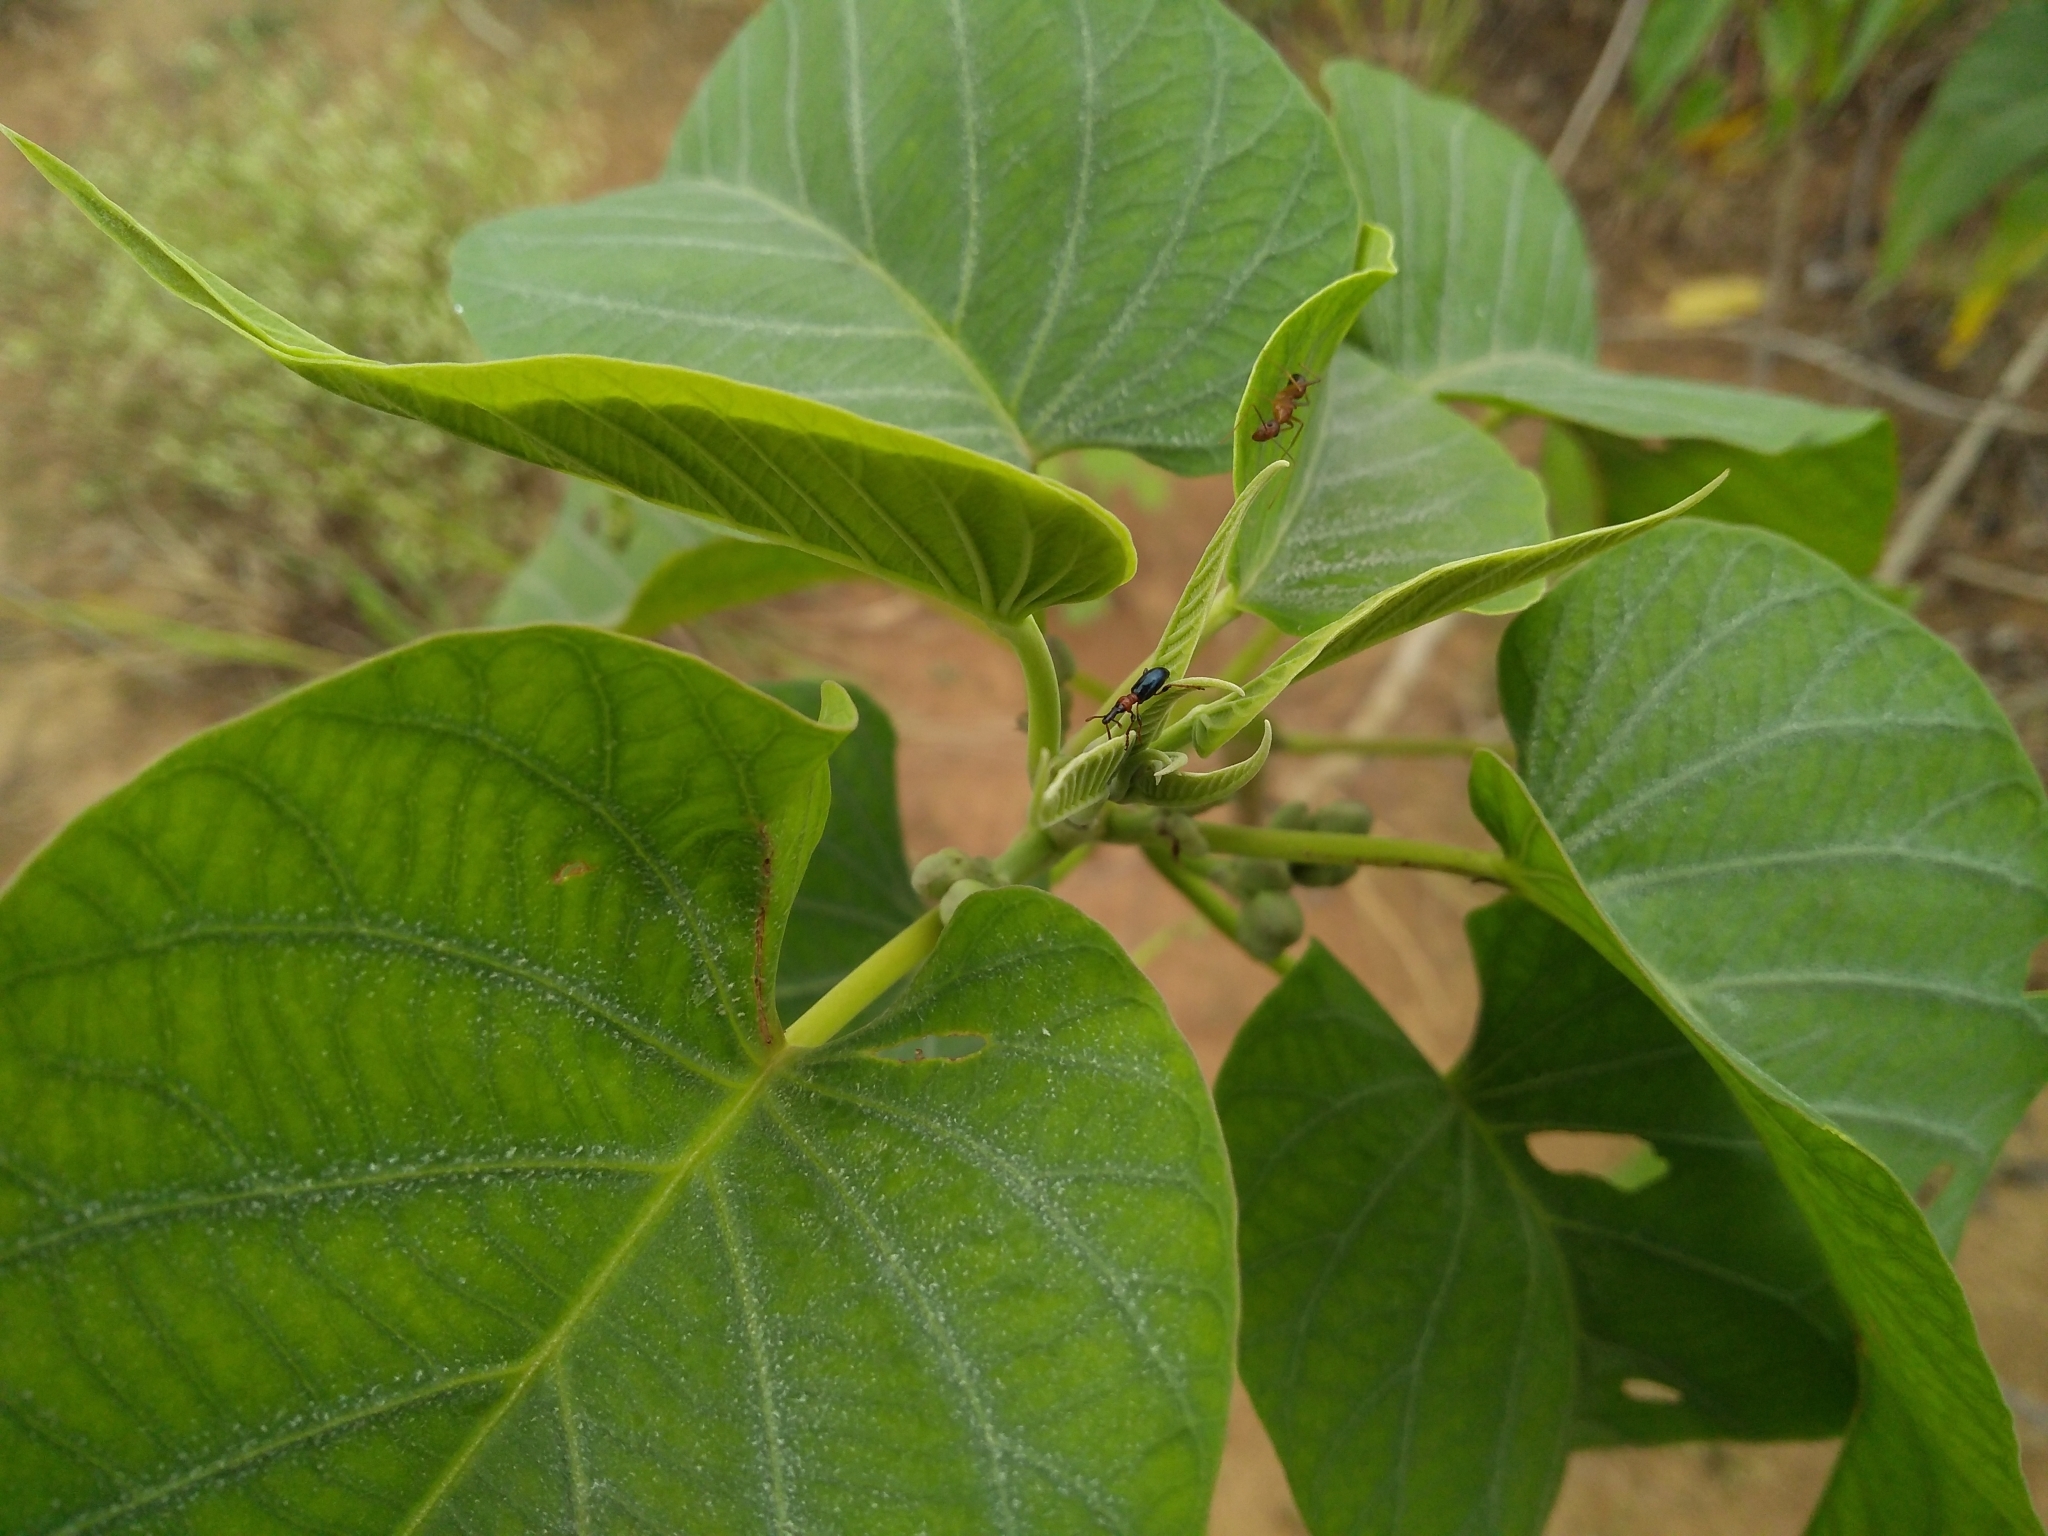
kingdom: Animalia
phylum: Arthropoda
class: Insecta
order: Coleoptera
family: Brentidae
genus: Cylas
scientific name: Cylas formicarius
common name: Sweetpotato weevil
